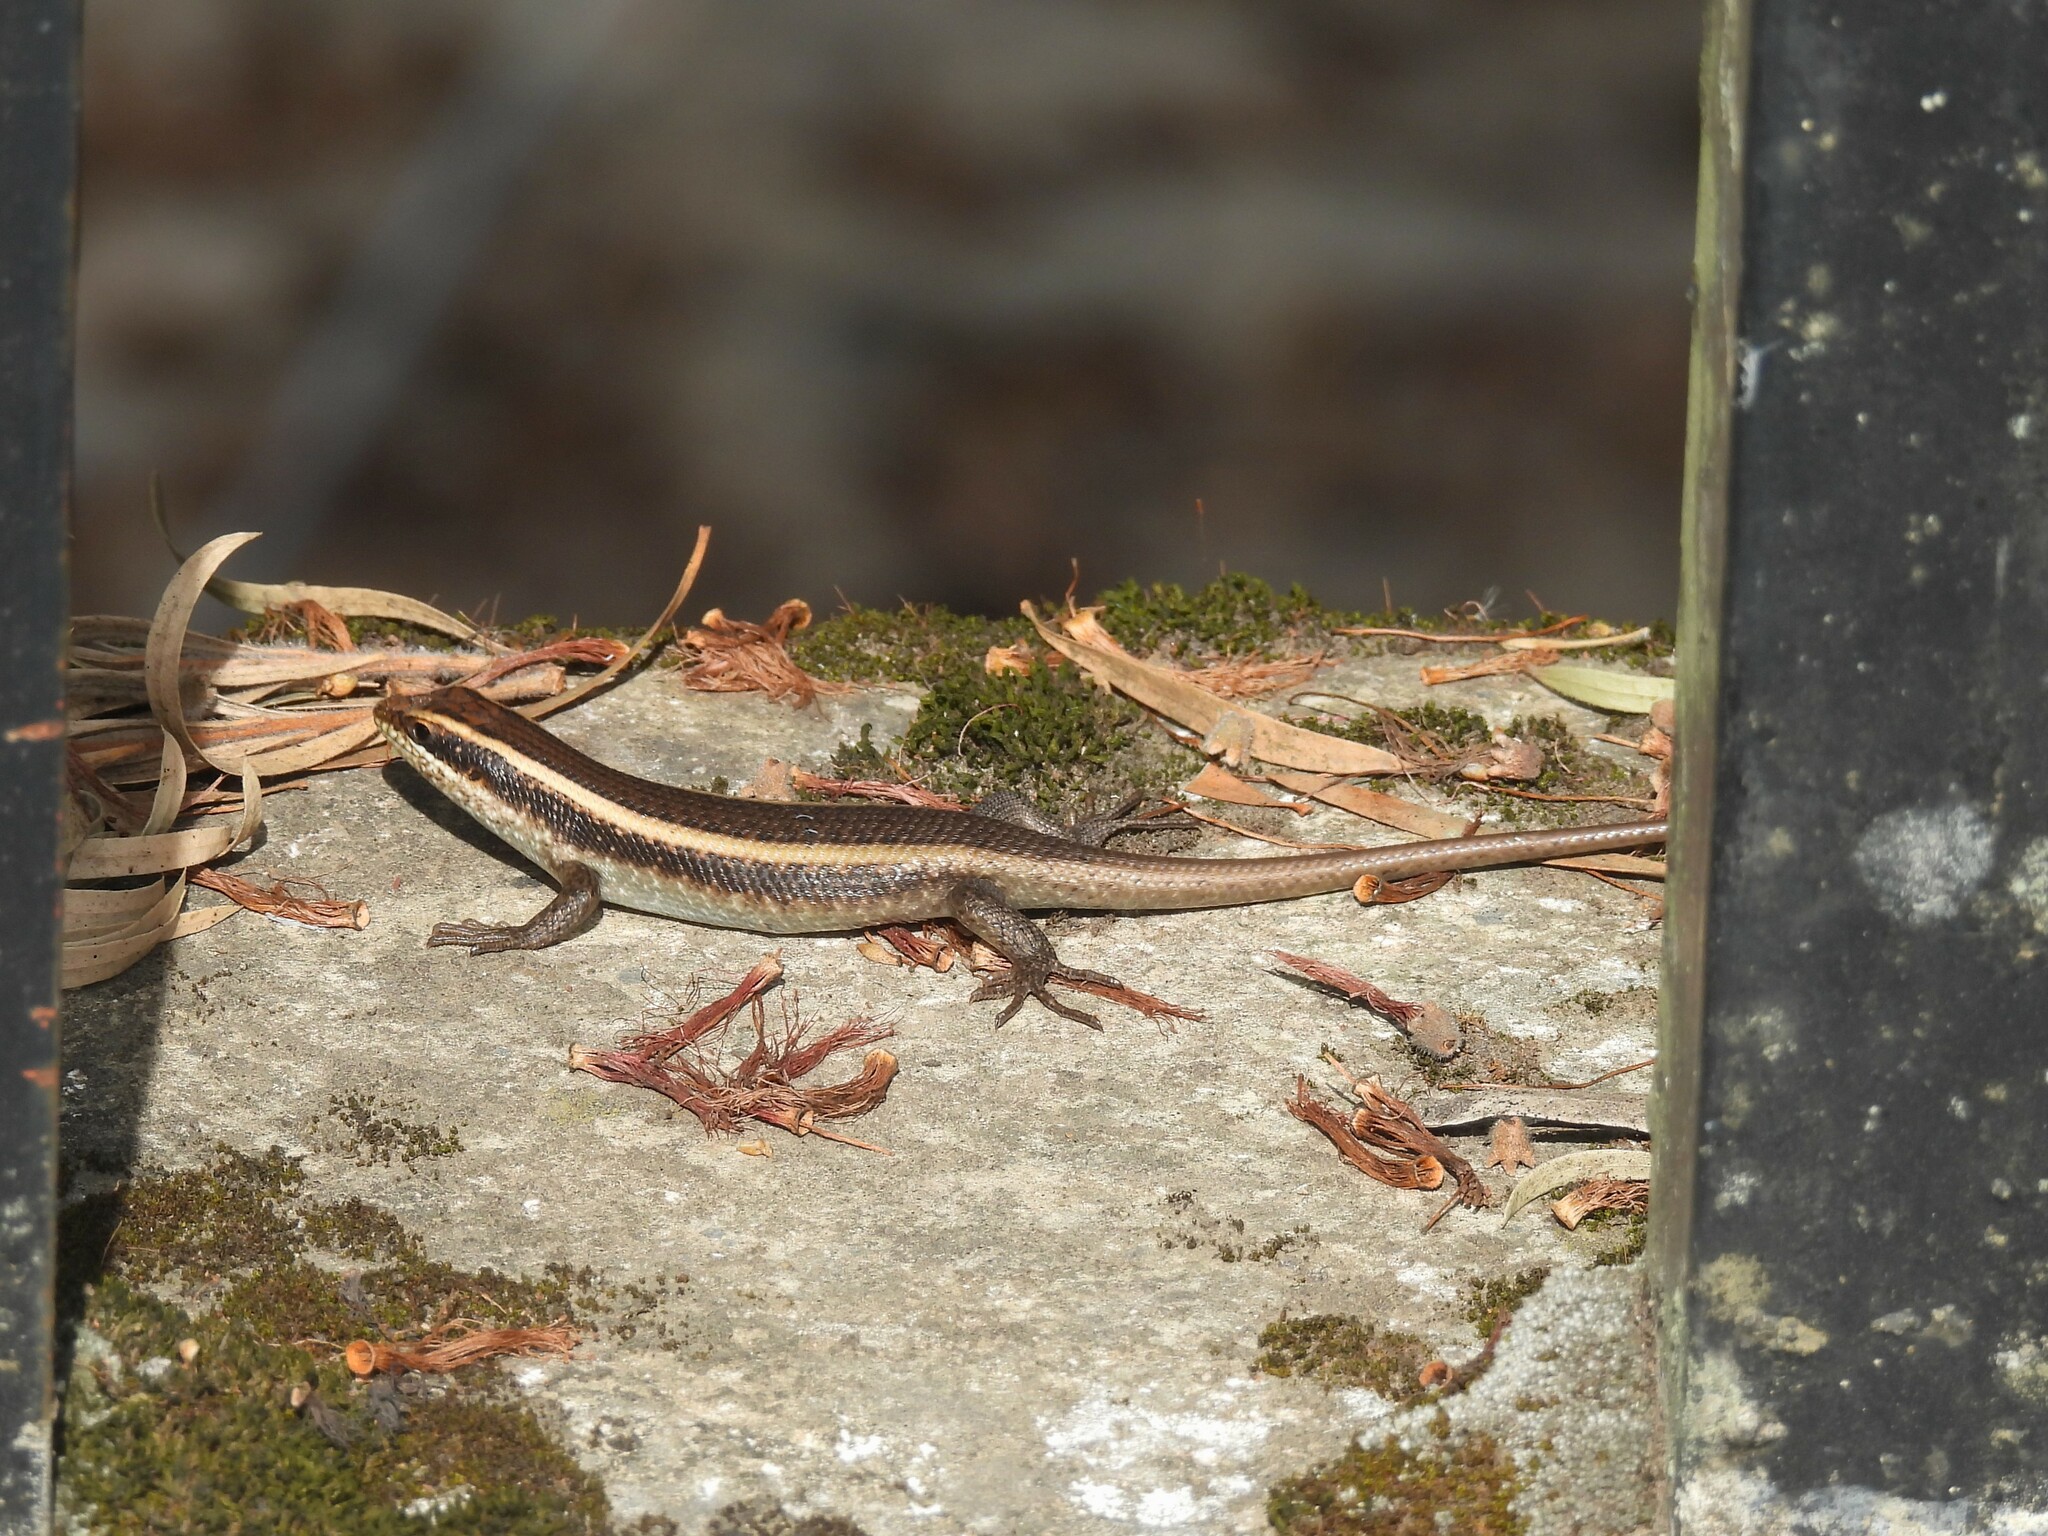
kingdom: Animalia
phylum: Chordata
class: Squamata
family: Scincidae
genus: Trachylepis
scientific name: Trachylepis striata
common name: African striped mabuya
